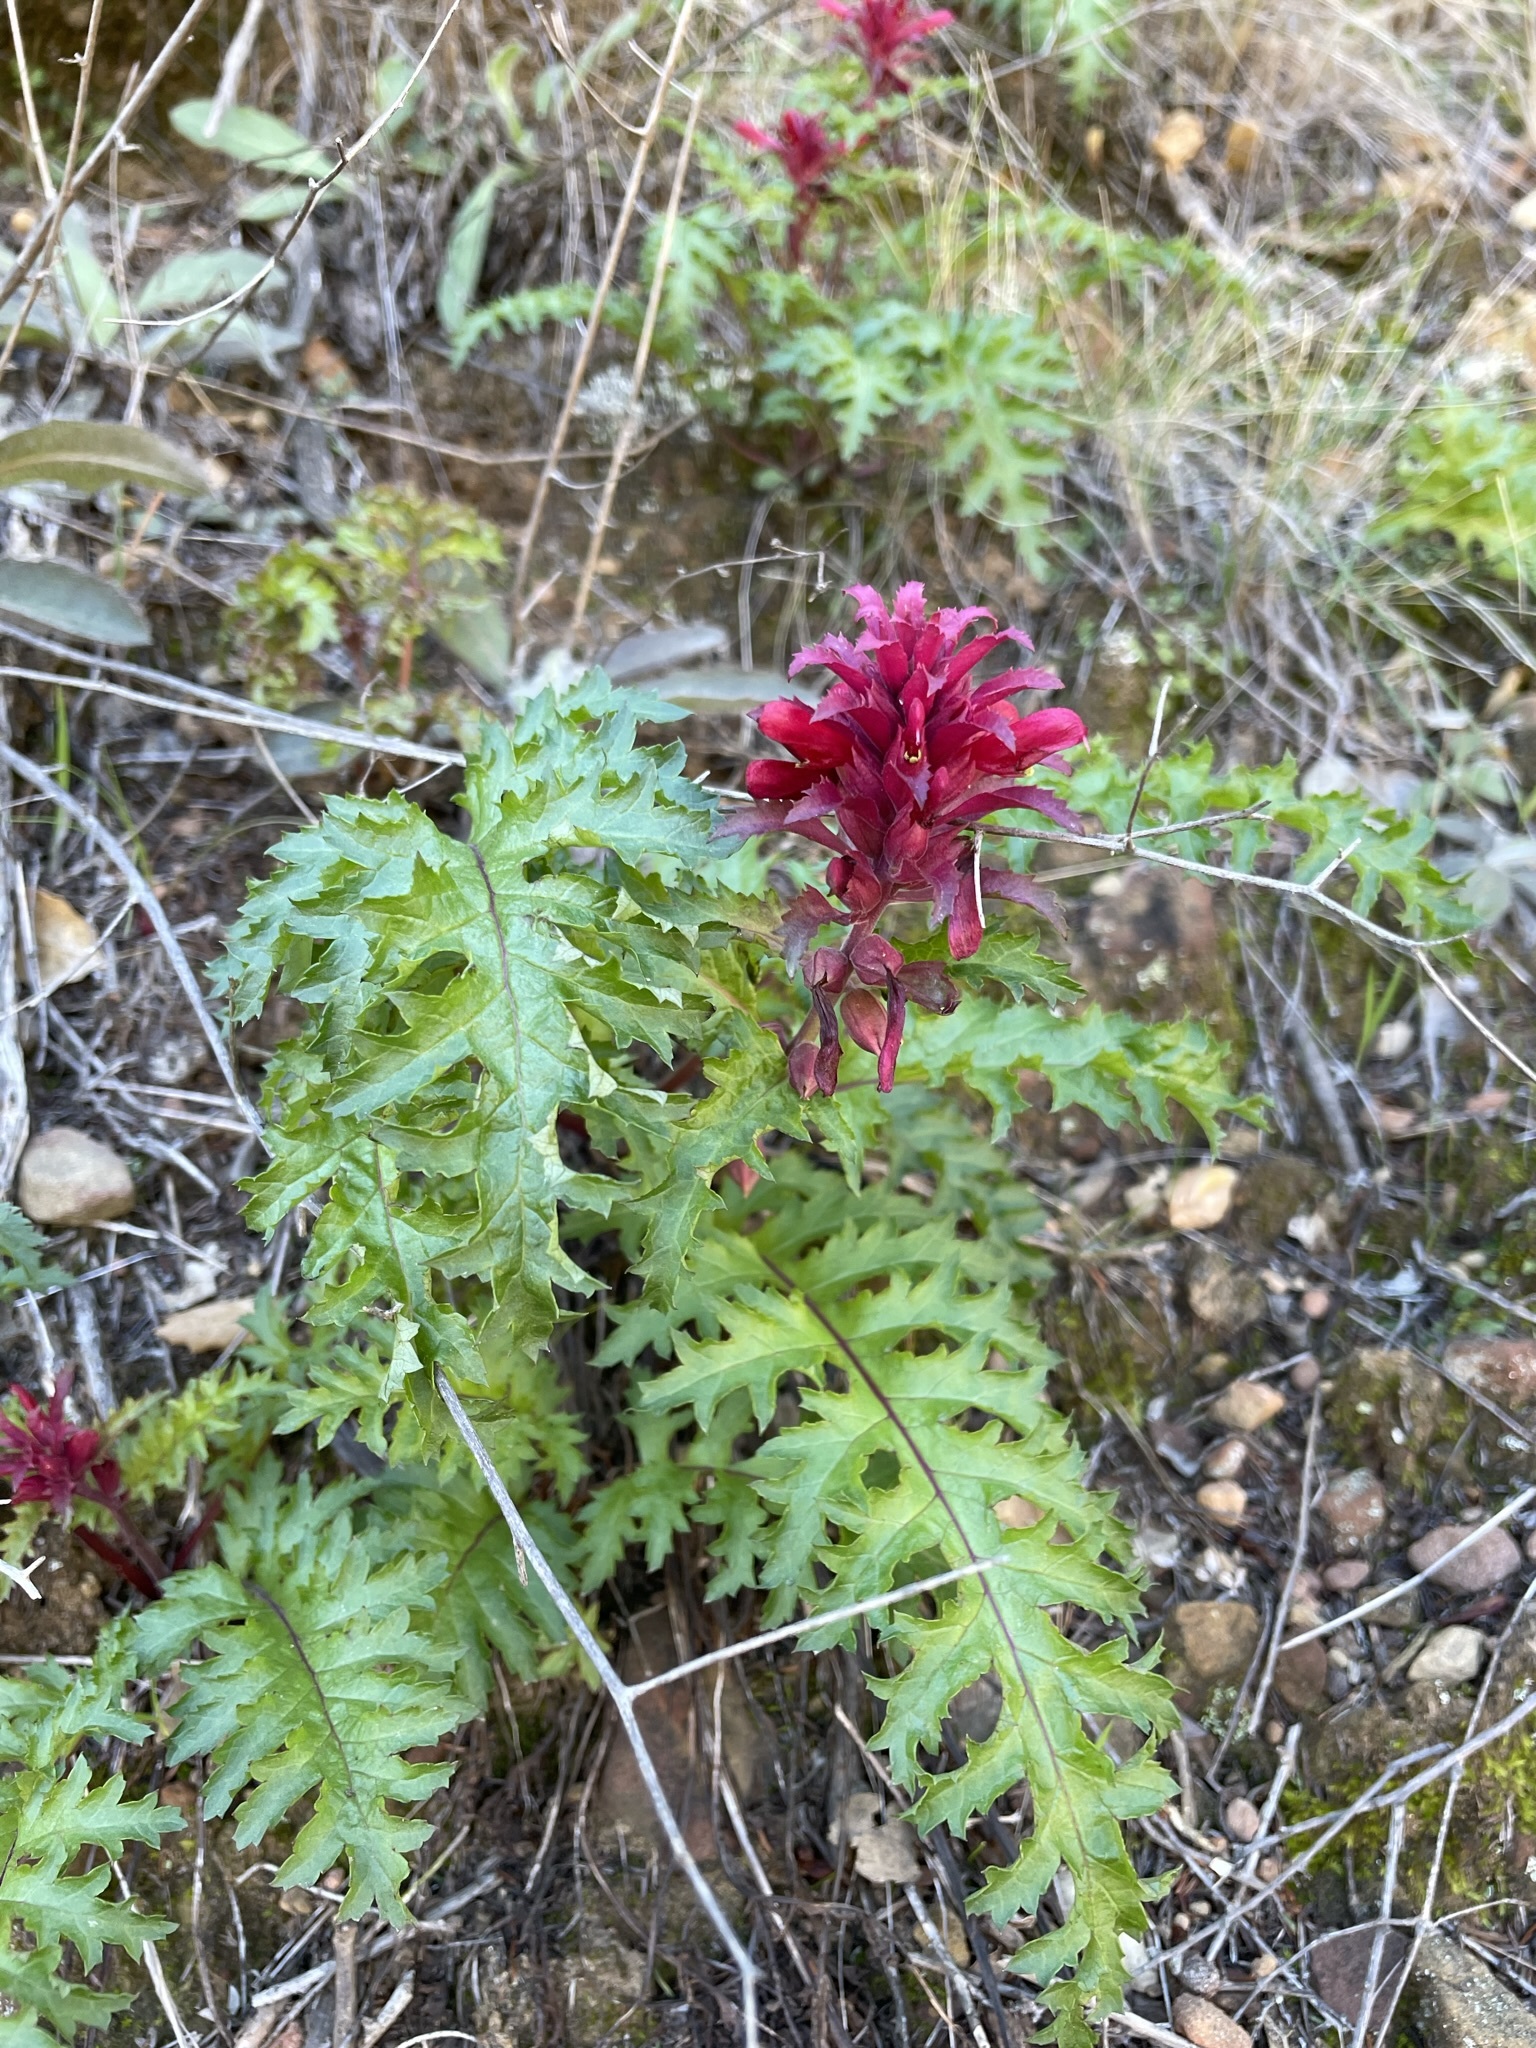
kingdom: Plantae
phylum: Tracheophyta
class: Magnoliopsida
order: Lamiales
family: Orobanchaceae
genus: Pedicularis
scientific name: Pedicularis densiflora
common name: Indian warrior
